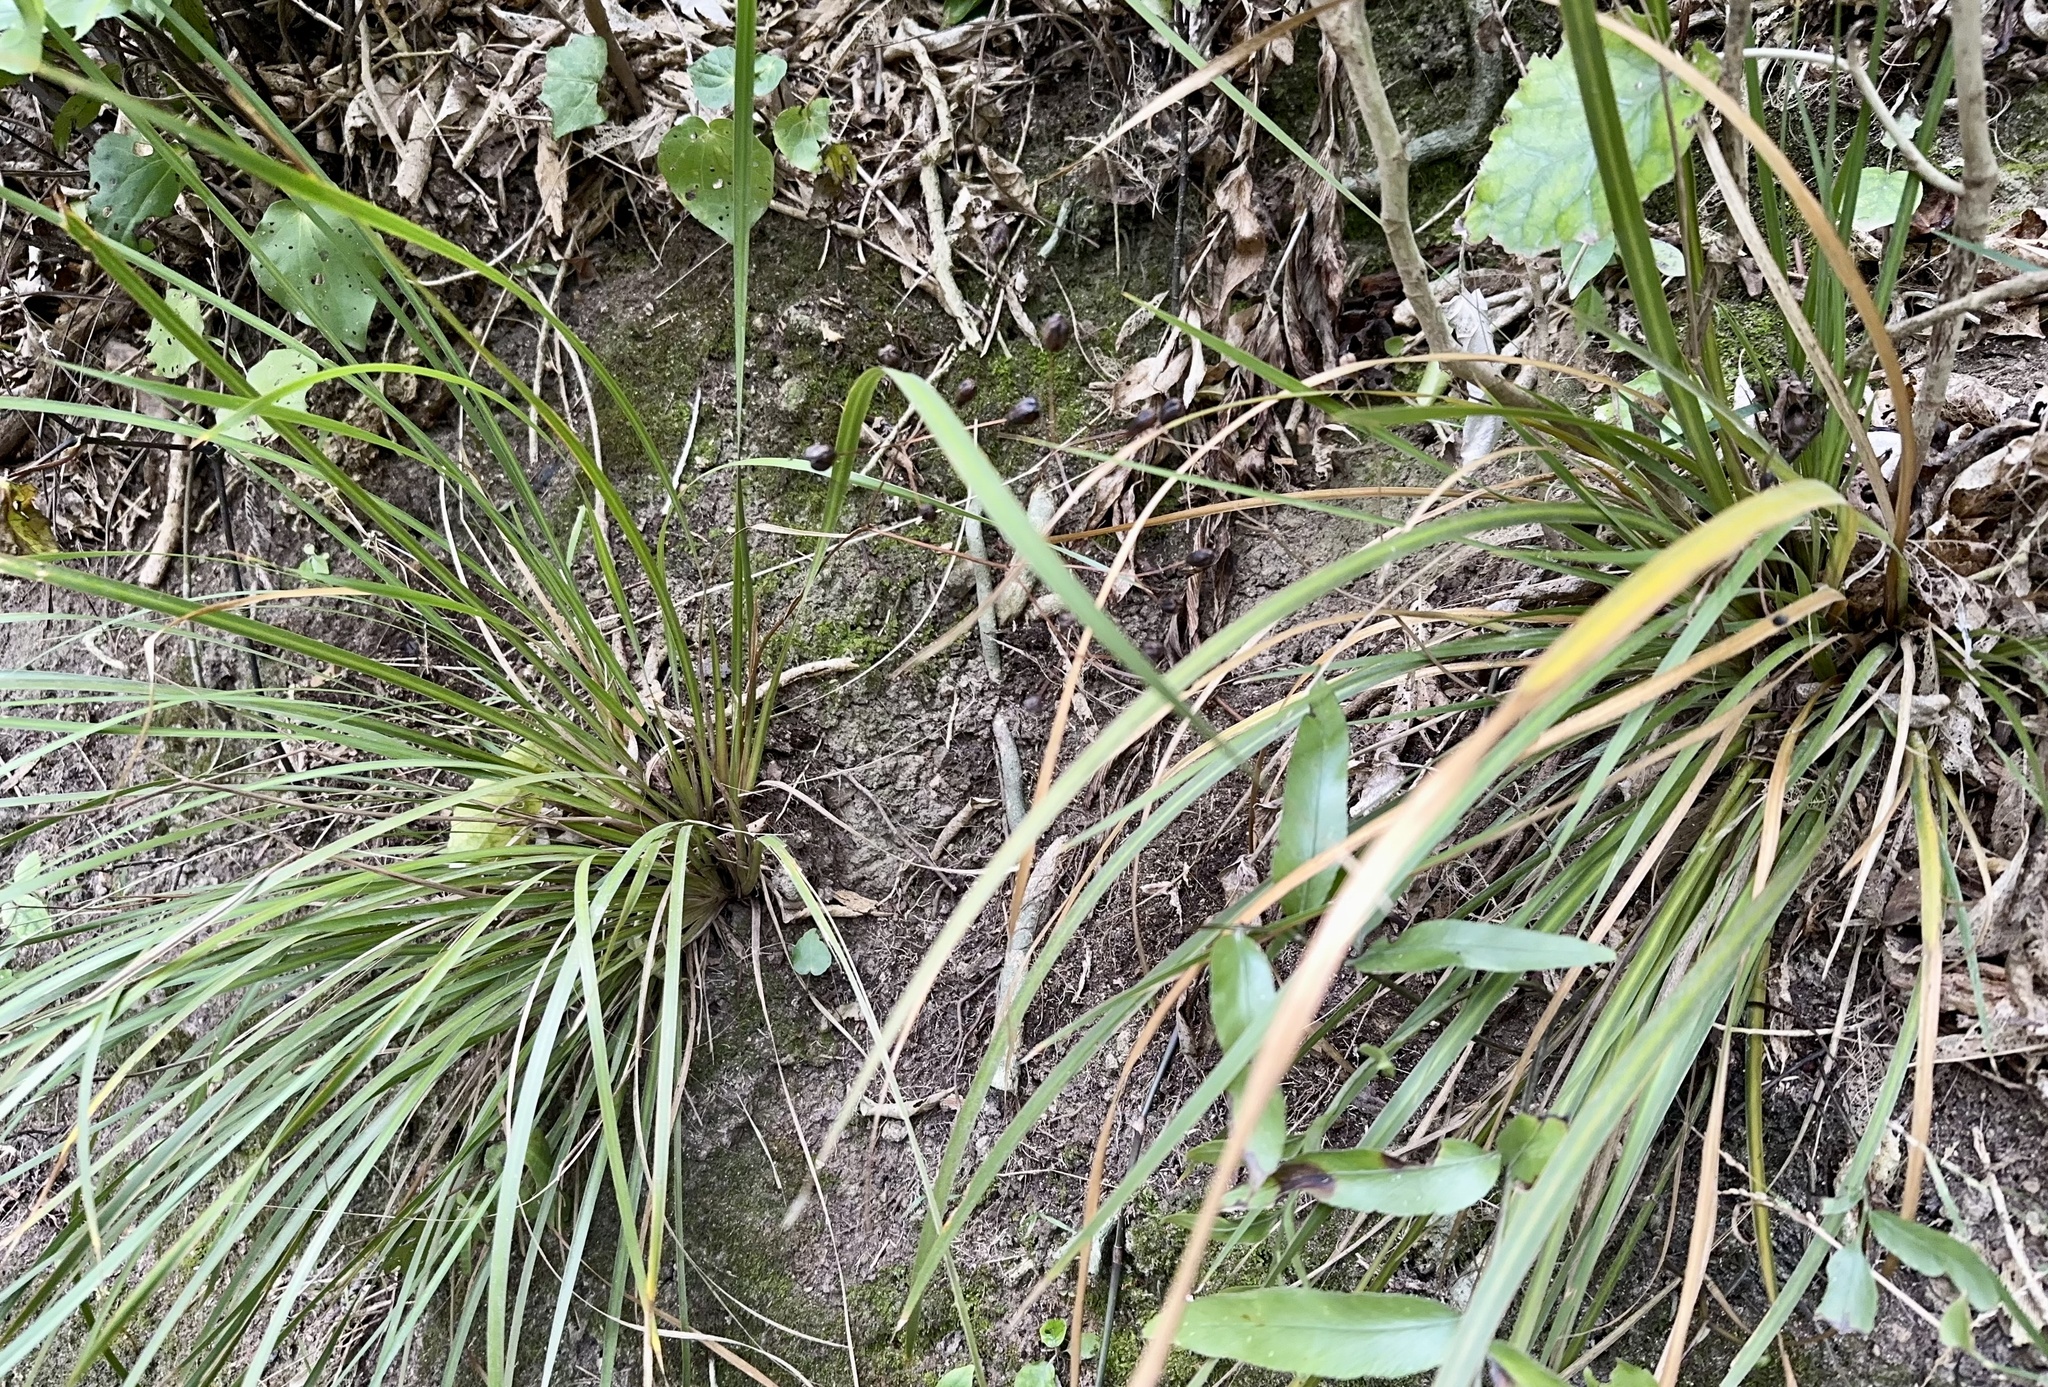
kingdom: Plantae
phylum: Tracheophyta
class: Liliopsida
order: Asparagales
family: Iridaceae
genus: Libertia
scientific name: Libertia ixioides
